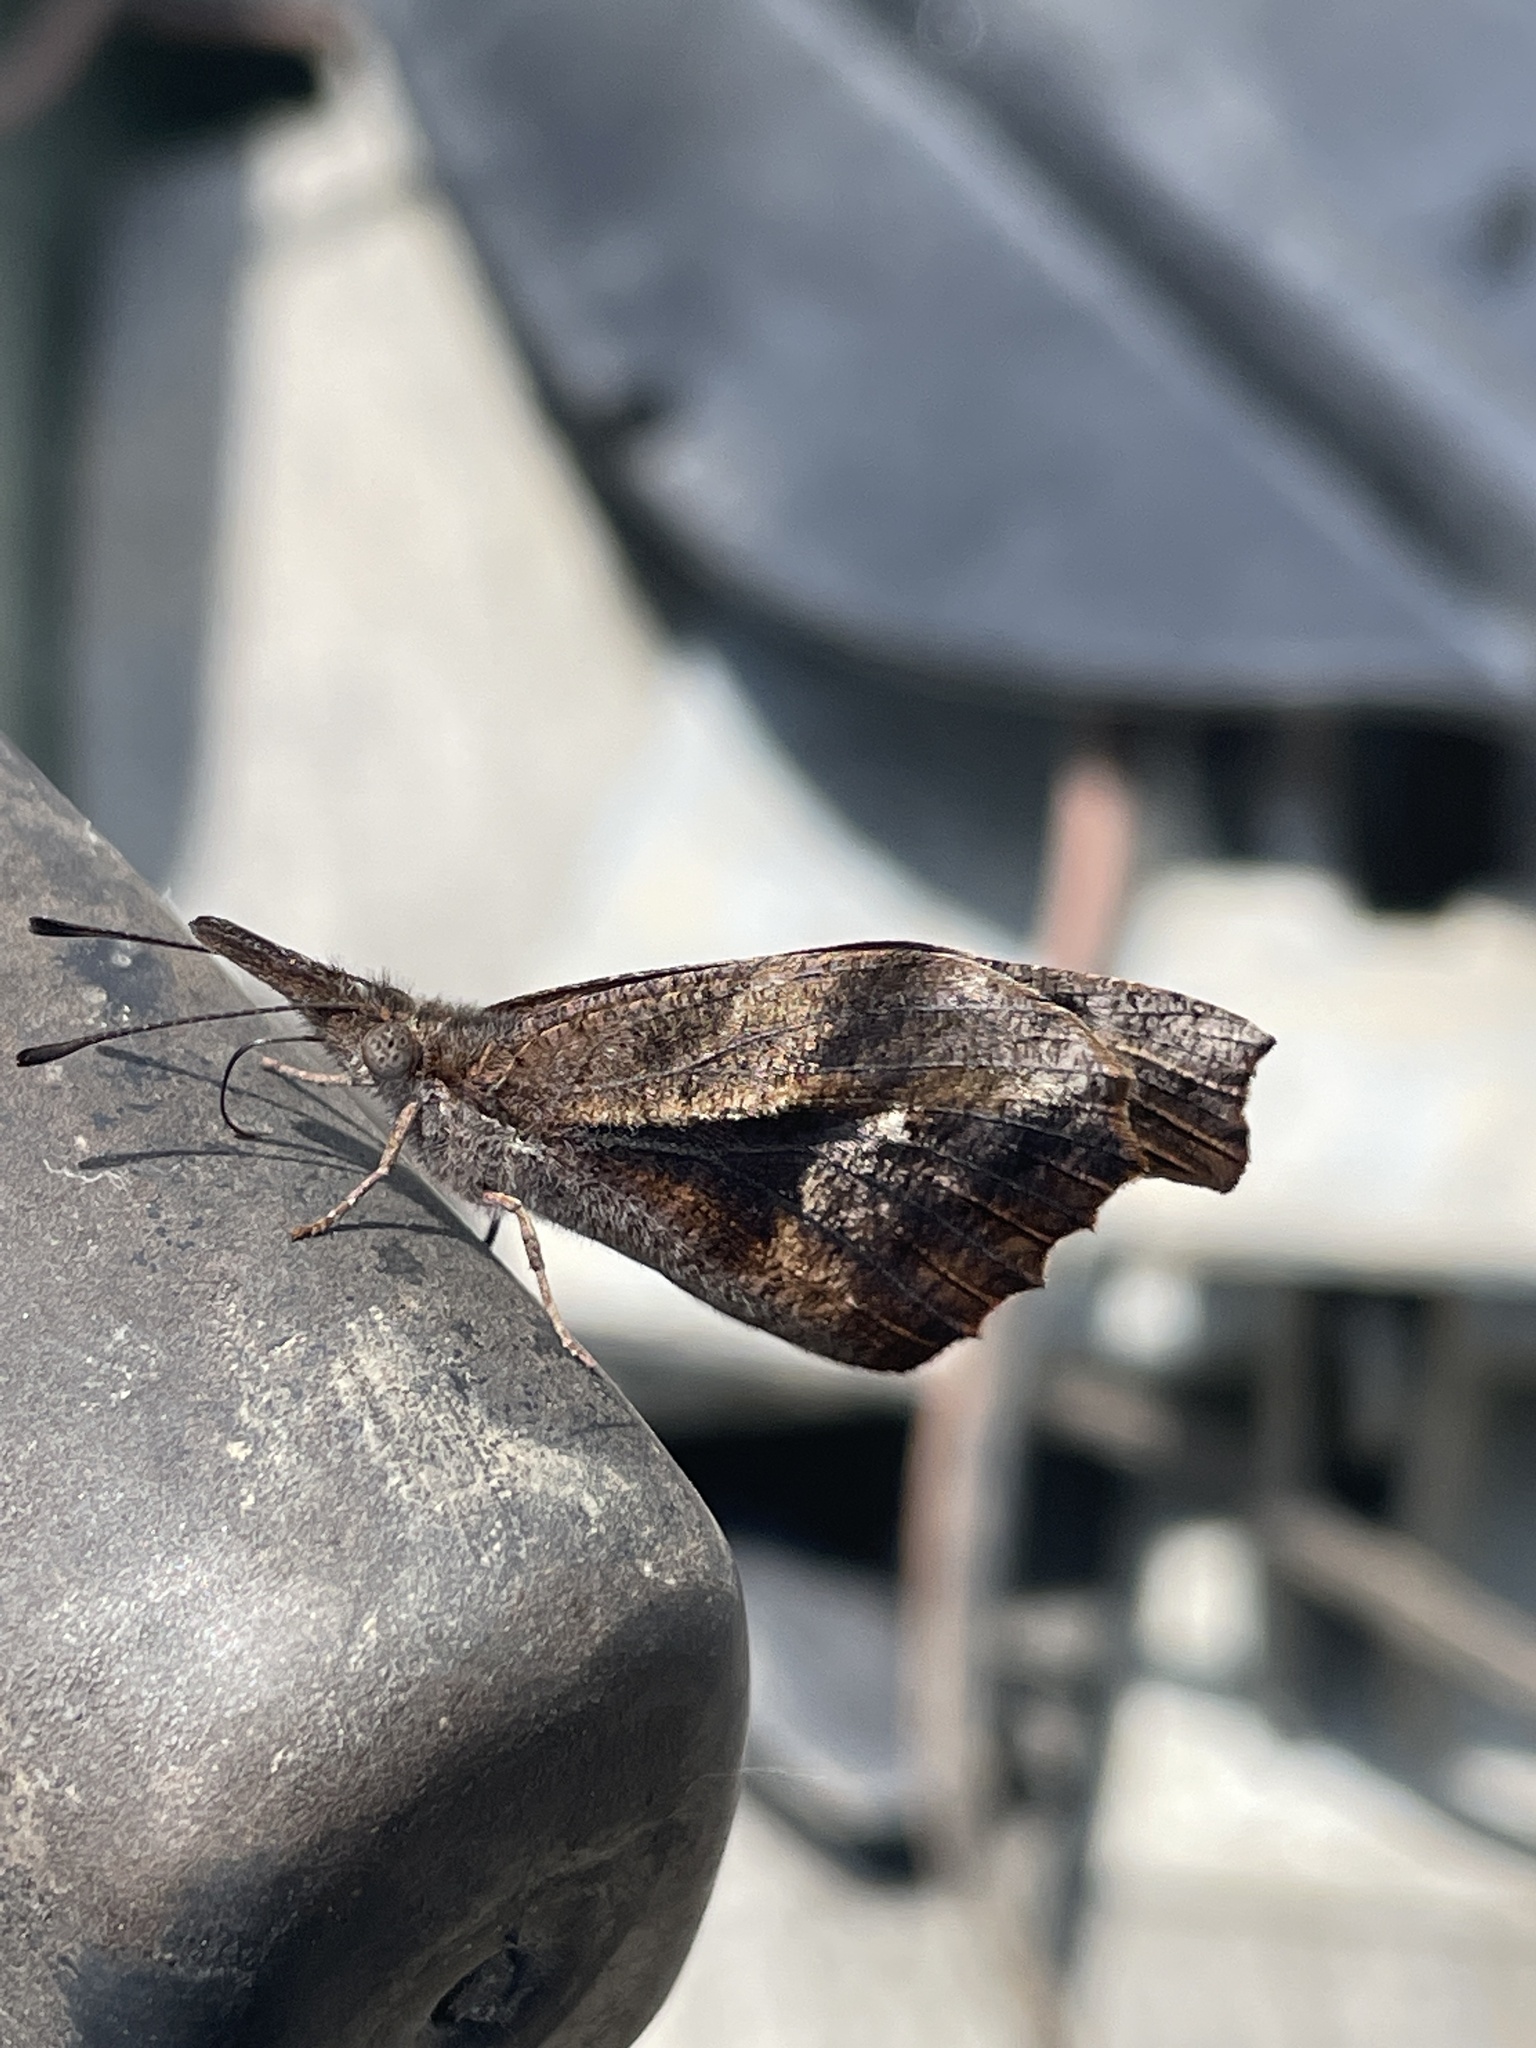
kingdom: Animalia
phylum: Arthropoda
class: Insecta
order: Lepidoptera
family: Nymphalidae
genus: Libytheana
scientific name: Libytheana carinenta
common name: American snout
